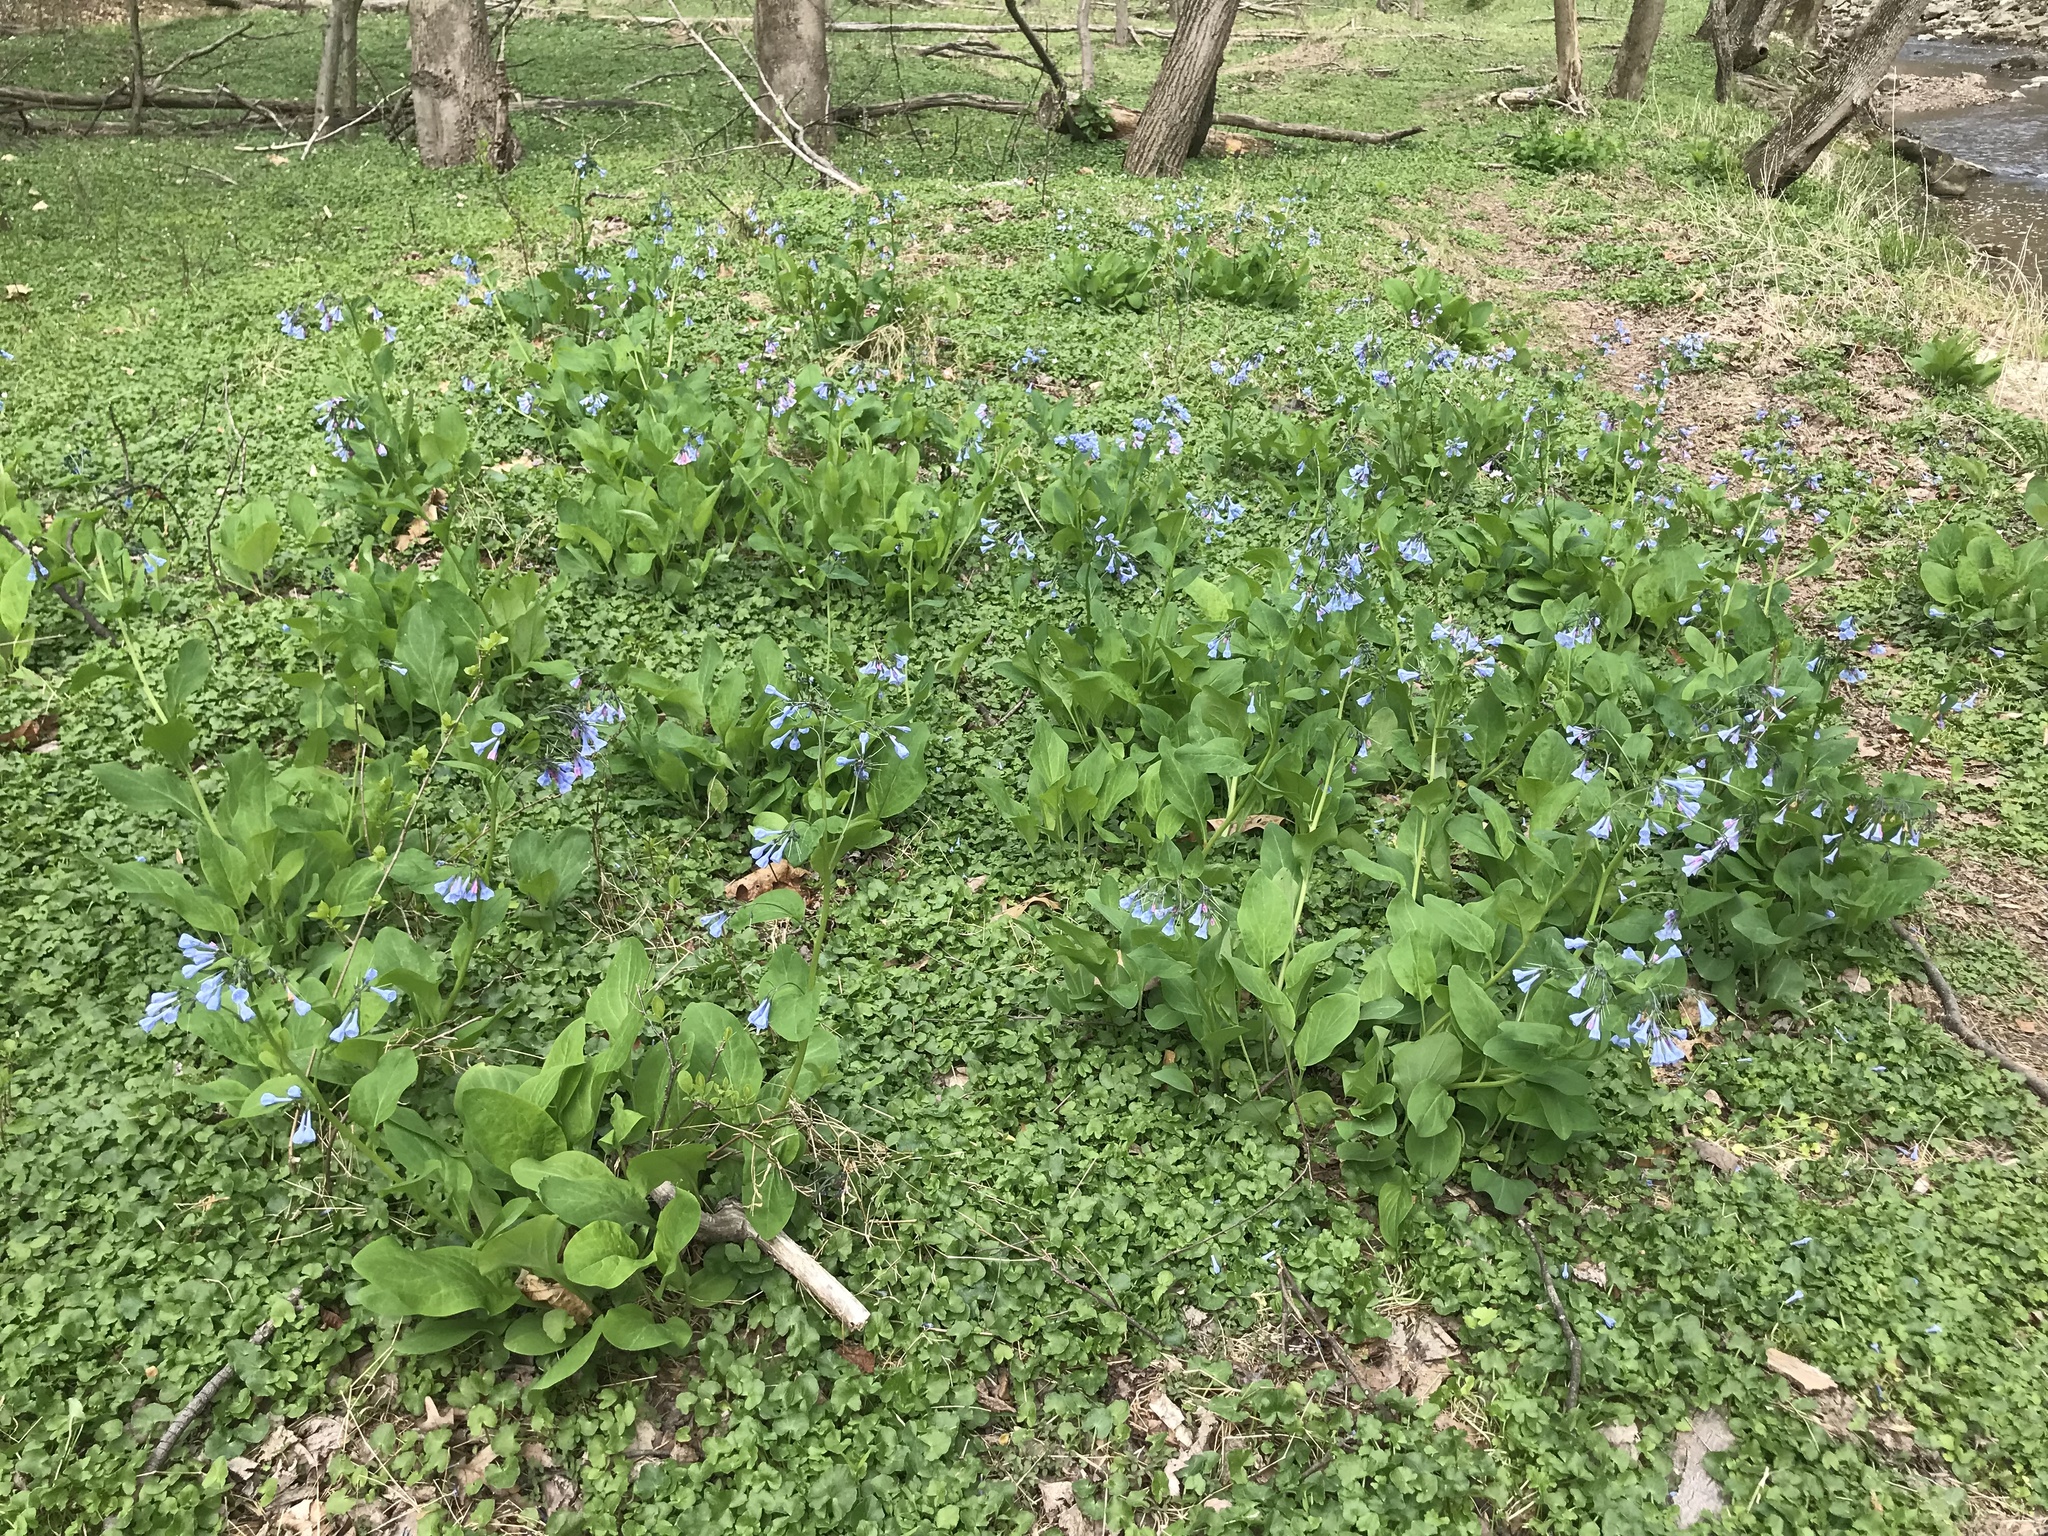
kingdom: Plantae
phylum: Tracheophyta
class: Magnoliopsida
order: Boraginales
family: Boraginaceae
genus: Mertensia
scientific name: Mertensia virginica
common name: Virginia bluebells
